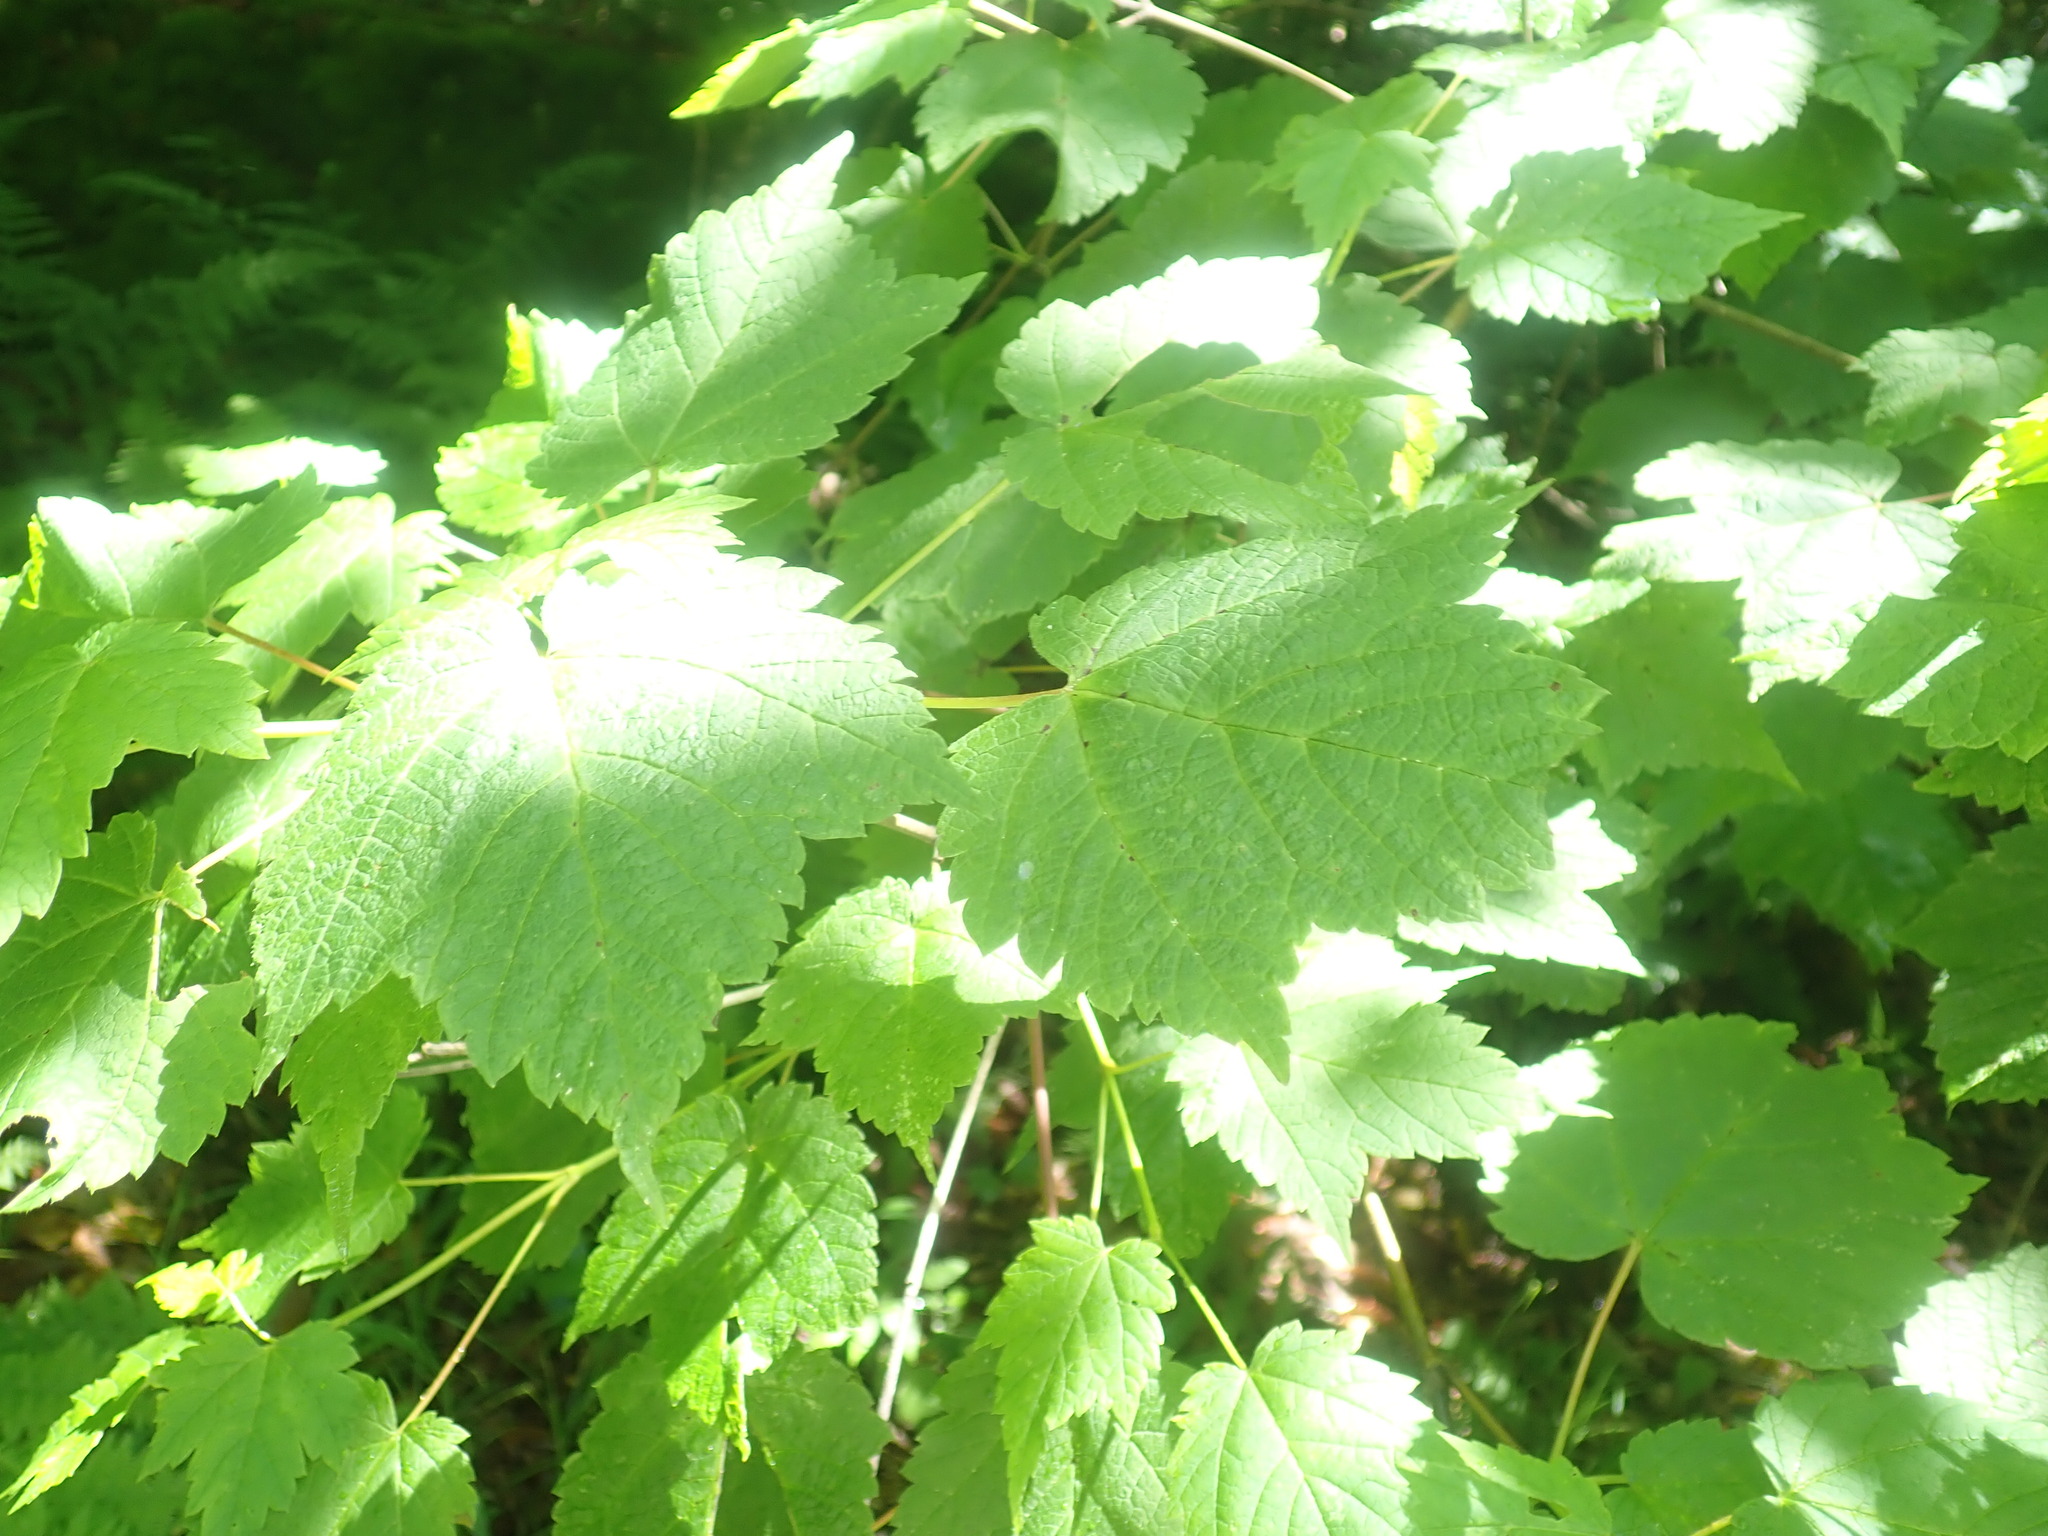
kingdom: Plantae
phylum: Tracheophyta
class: Magnoliopsida
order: Sapindales
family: Sapindaceae
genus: Acer
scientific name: Acer spicatum
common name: Mountain maple
